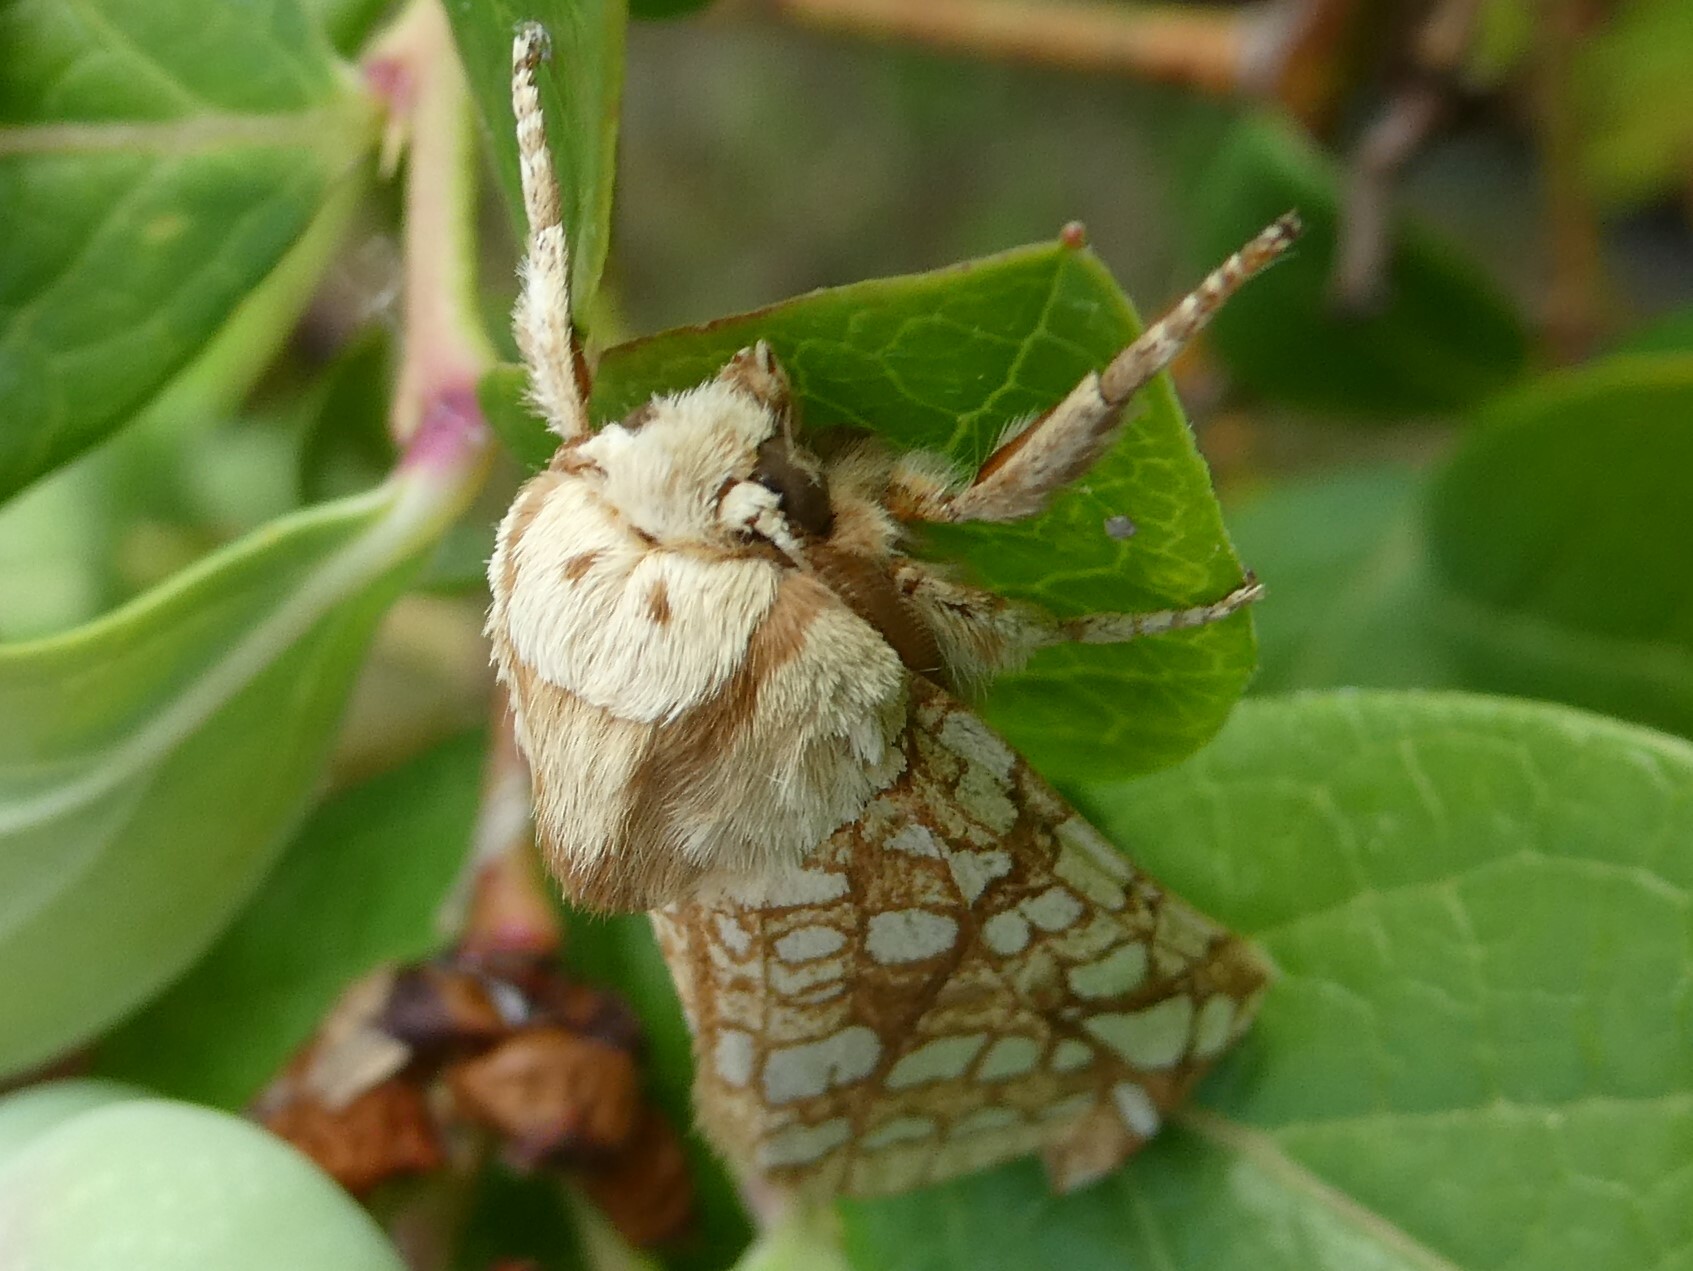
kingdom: Animalia
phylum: Arthropoda
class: Insecta
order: Lepidoptera
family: Erebidae
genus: Lophocampa
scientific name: Lophocampa caryae
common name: Hickory tussock moth
